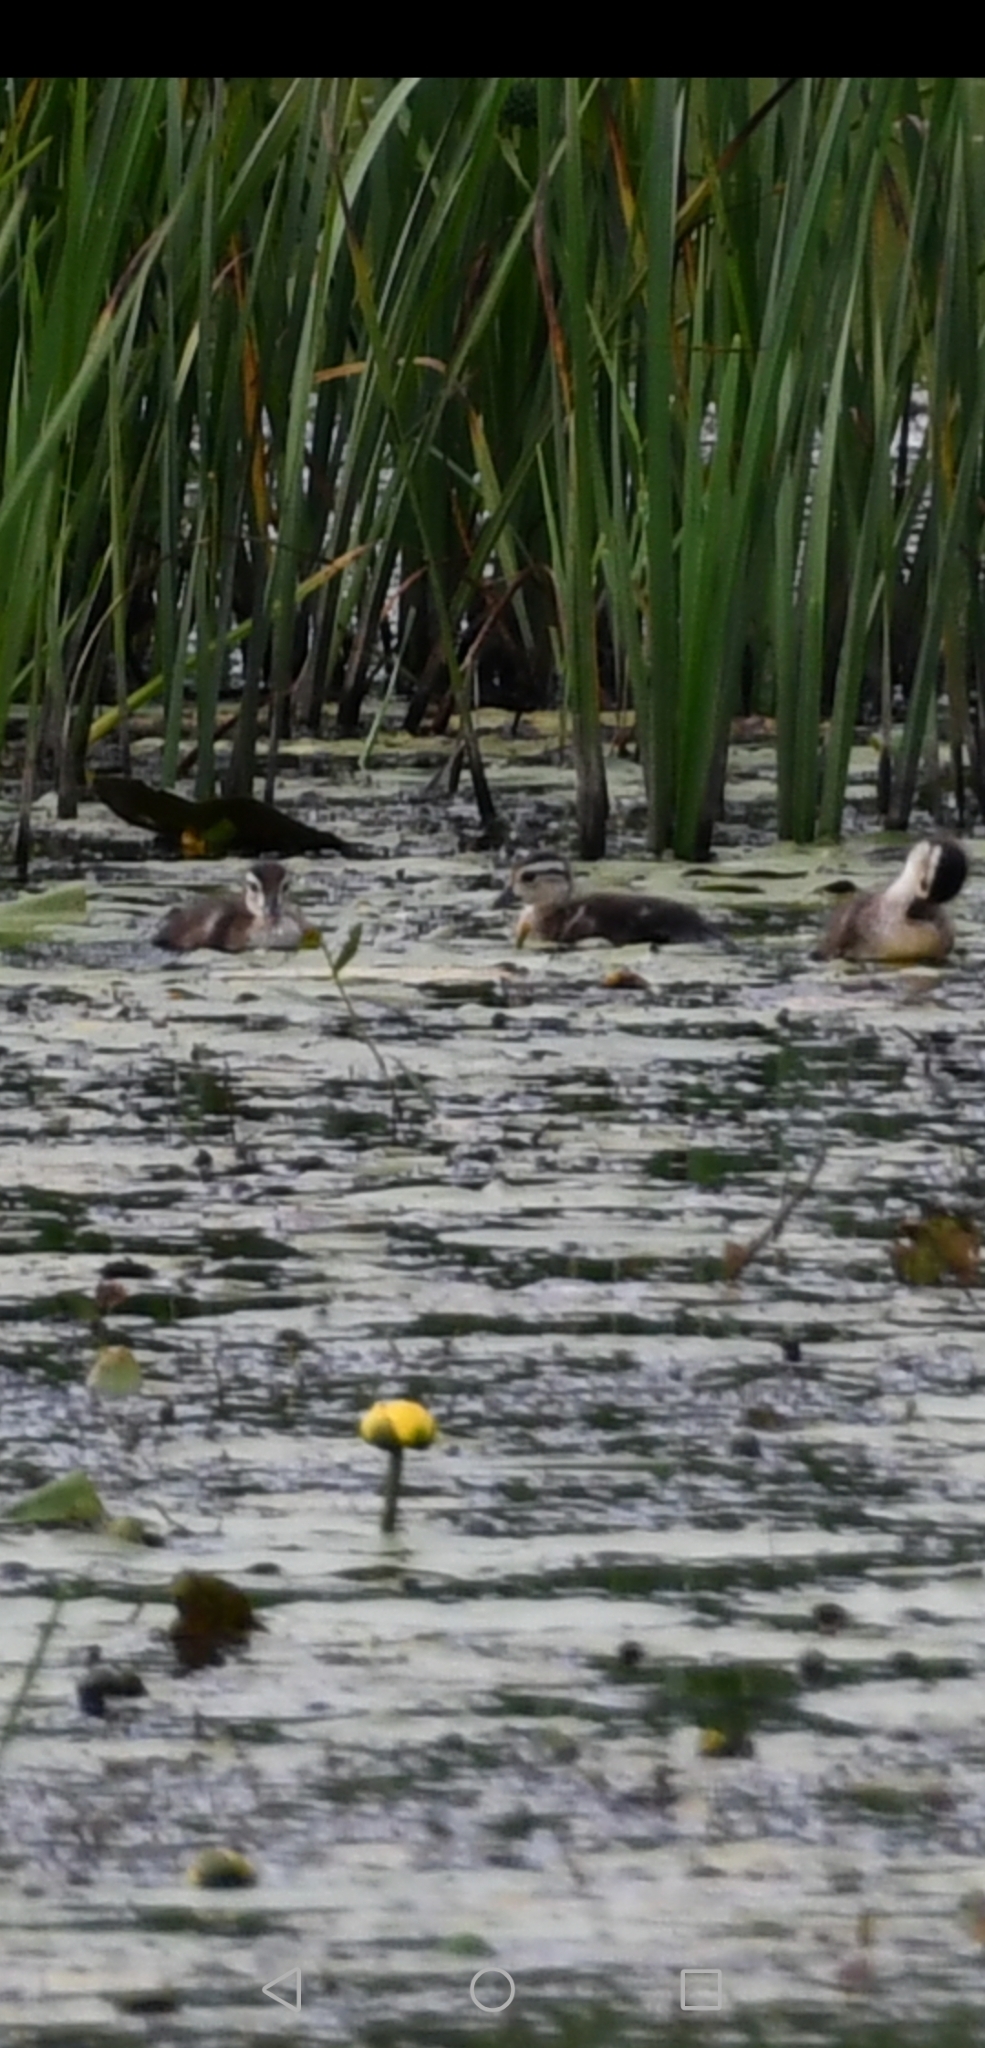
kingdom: Animalia
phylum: Chordata
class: Aves
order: Anseriformes
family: Anatidae
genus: Aix
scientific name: Aix sponsa
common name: Wood duck
